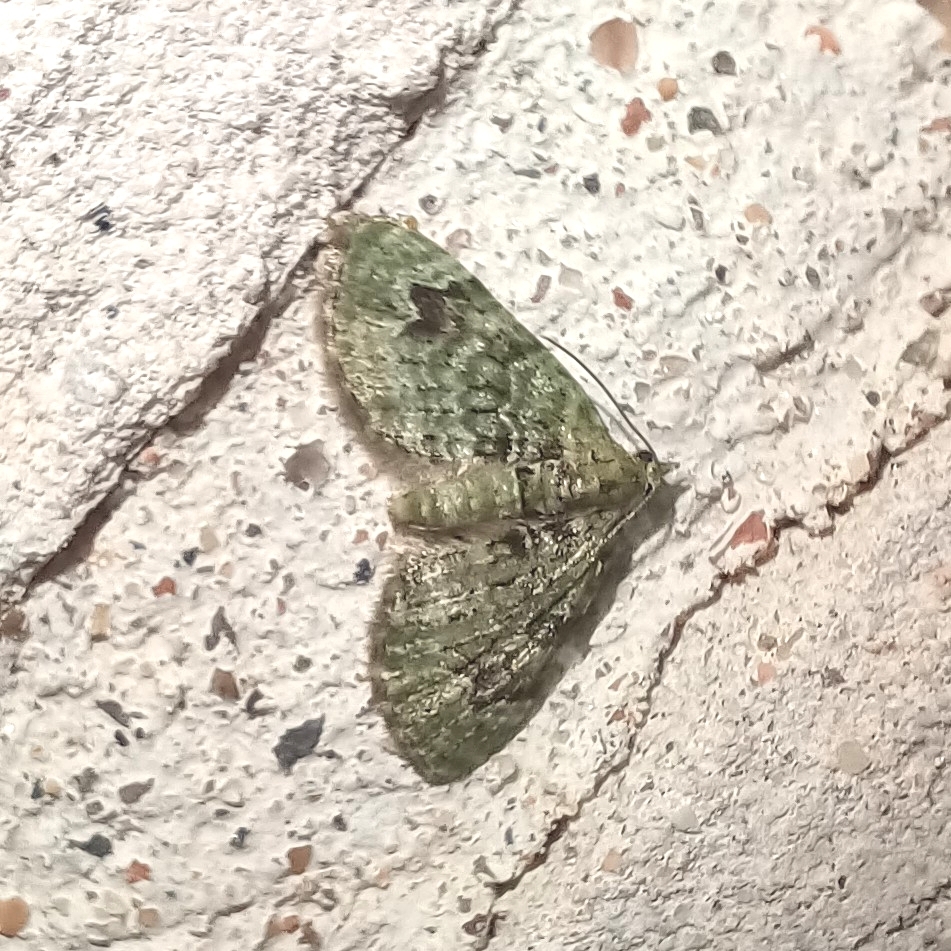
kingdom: Animalia
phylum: Arthropoda
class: Insecta
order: Lepidoptera
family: Geometridae
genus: Chloroclystis
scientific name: Chloroclystis v-ata
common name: V-pug
